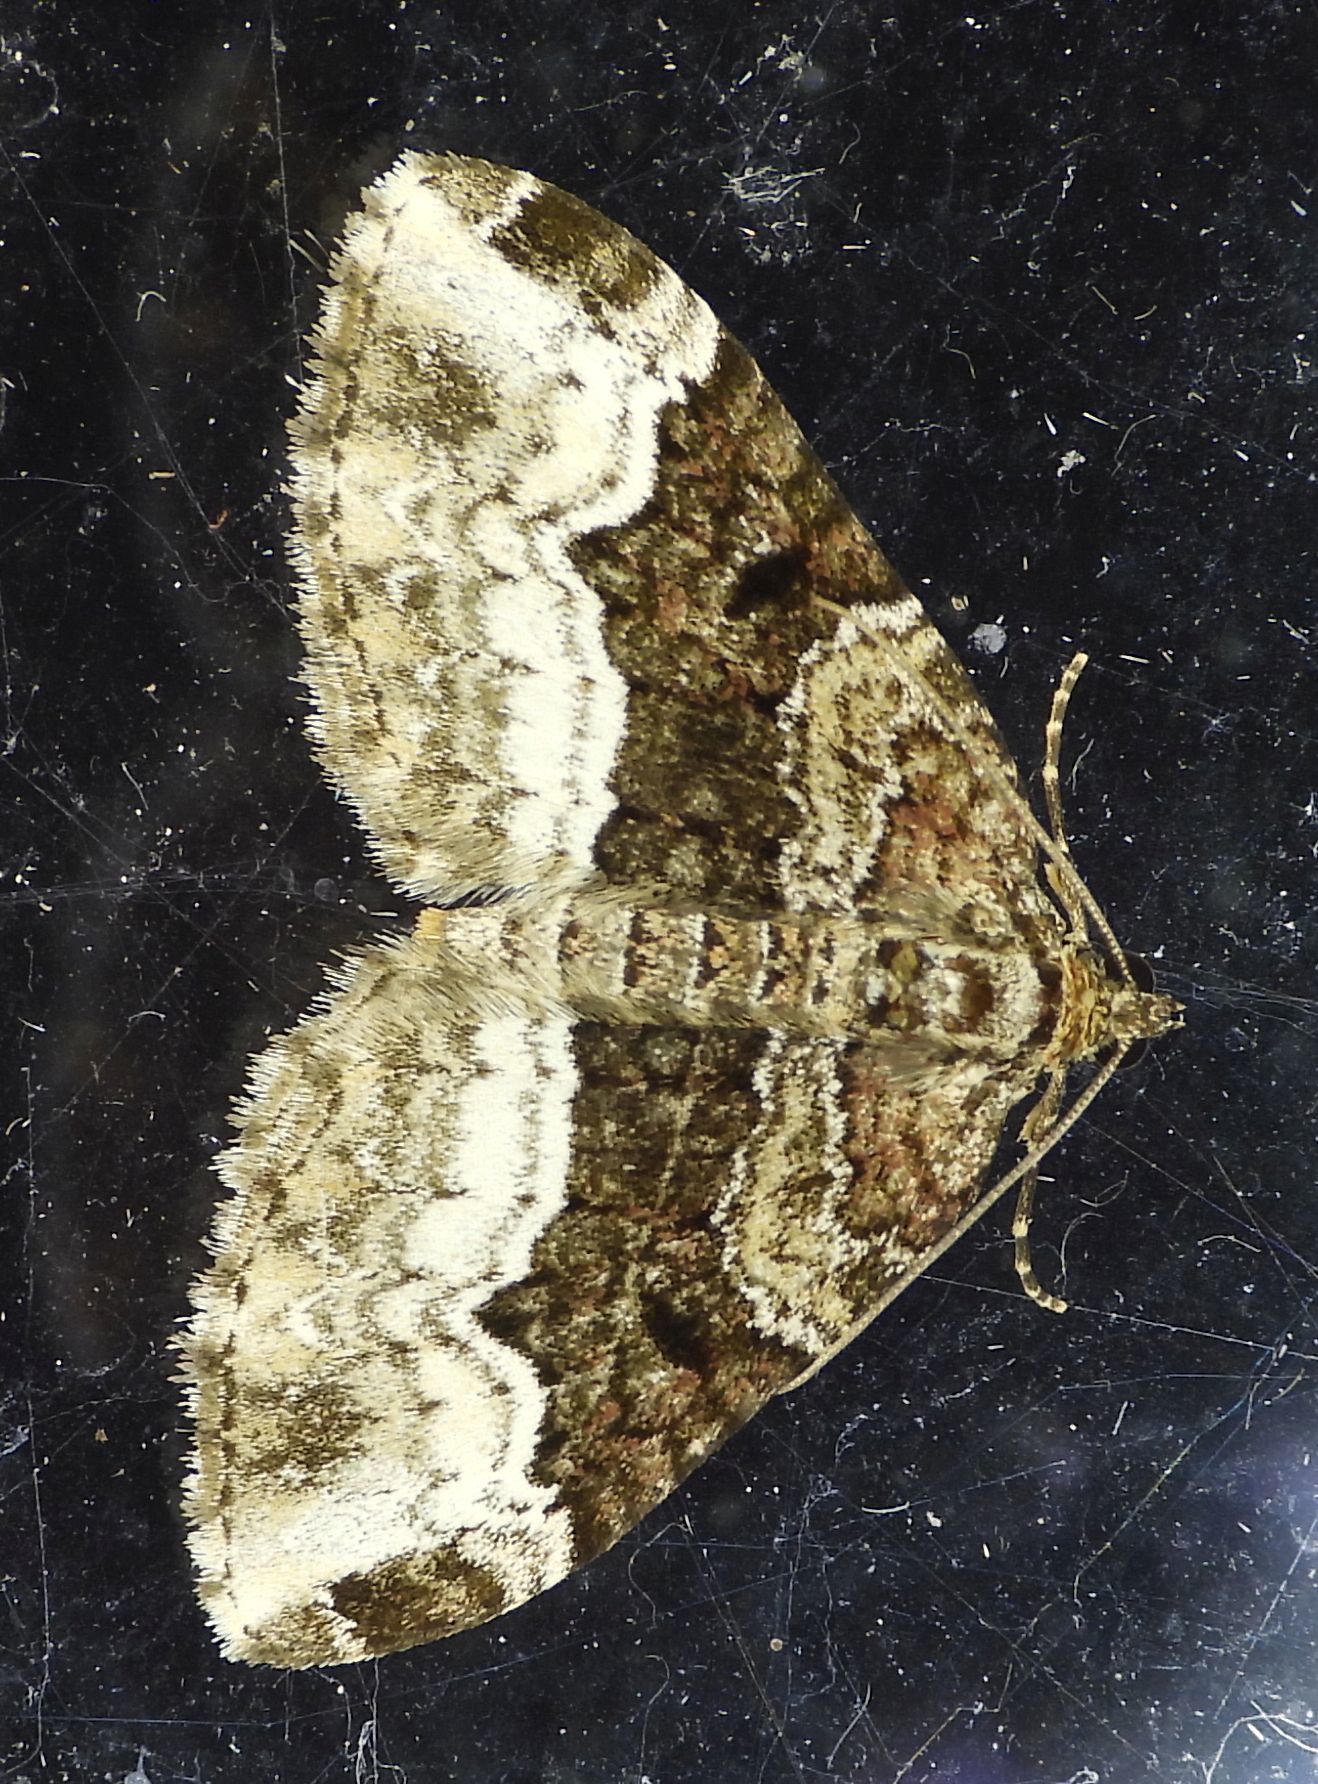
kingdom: Animalia
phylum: Arthropoda
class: Insecta
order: Lepidoptera
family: Geometridae
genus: Euphyia
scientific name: Euphyia intermediata
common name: Sharp-angled carpet
